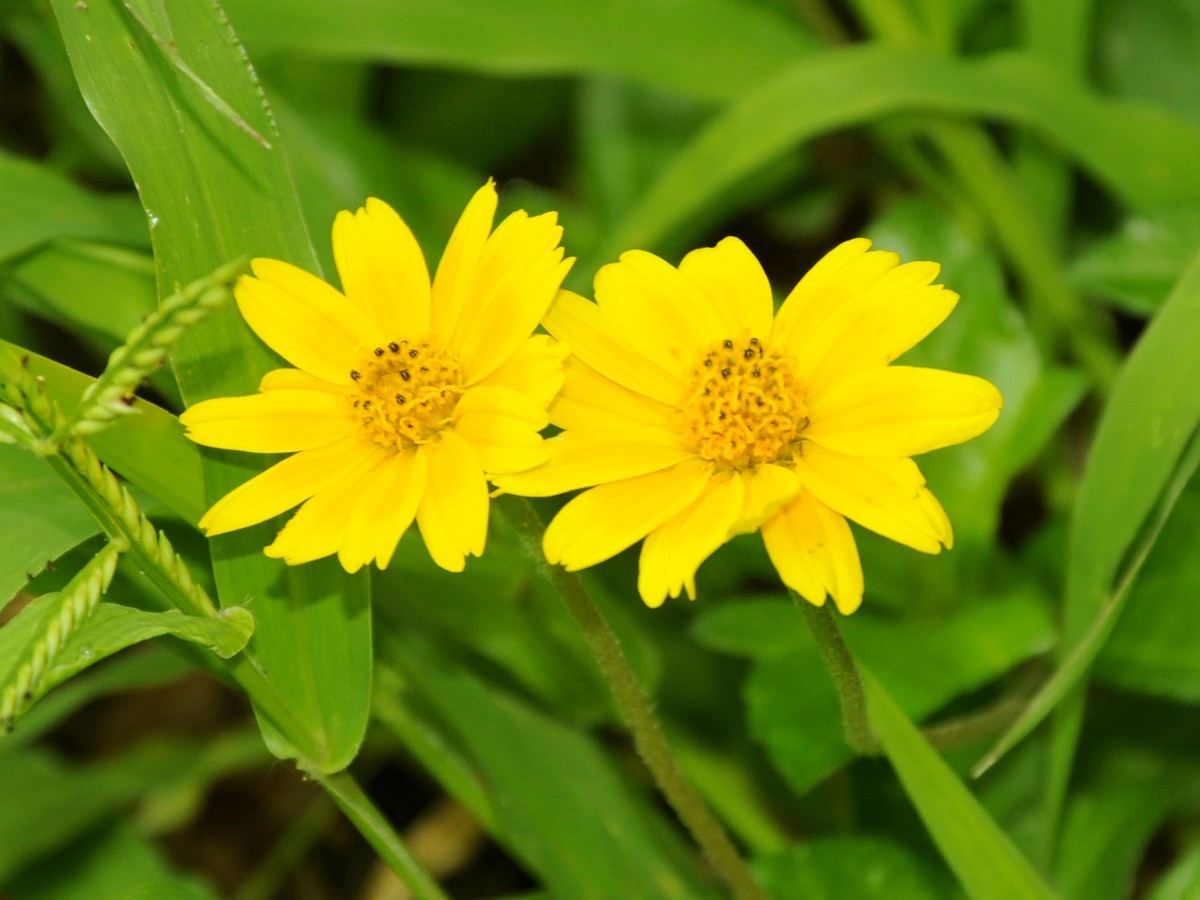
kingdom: Plantae
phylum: Tracheophyta
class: Magnoliopsida
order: Asterales
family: Asteraceae
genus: Sphagneticola
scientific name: Sphagneticola trilobata
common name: Bay biscayne creeping-oxeye
